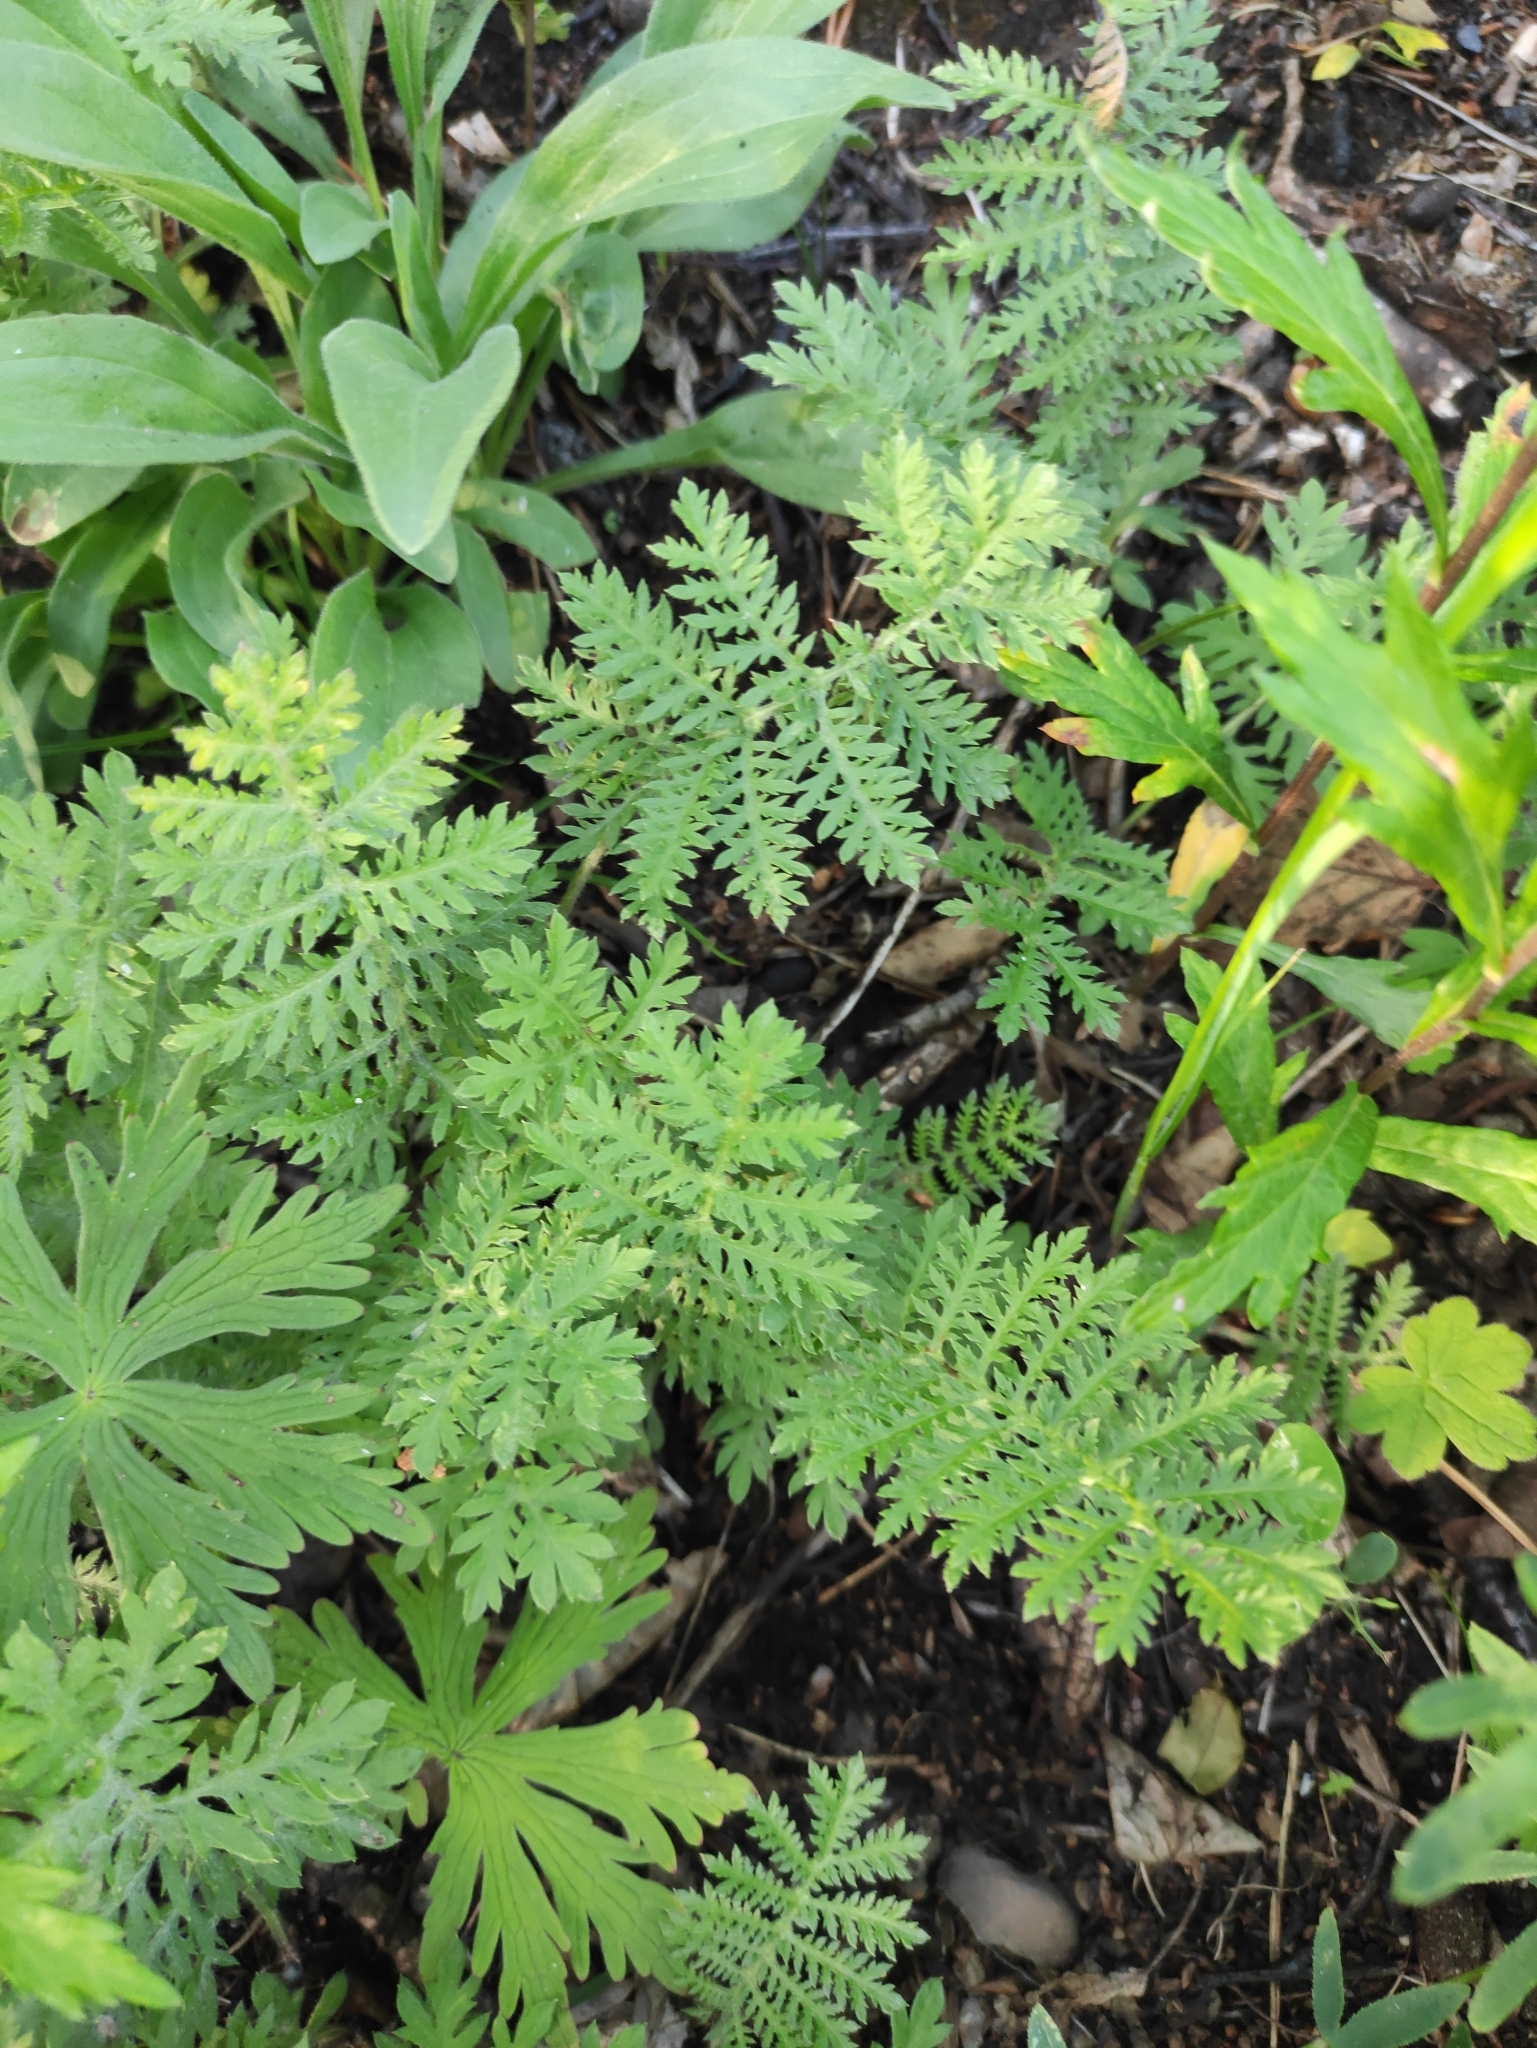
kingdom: Plantae
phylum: Tracheophyta
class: Magnoliopsida
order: Asterales
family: Asteraceae
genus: Artemisia
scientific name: Artemisia tanacetifolia
